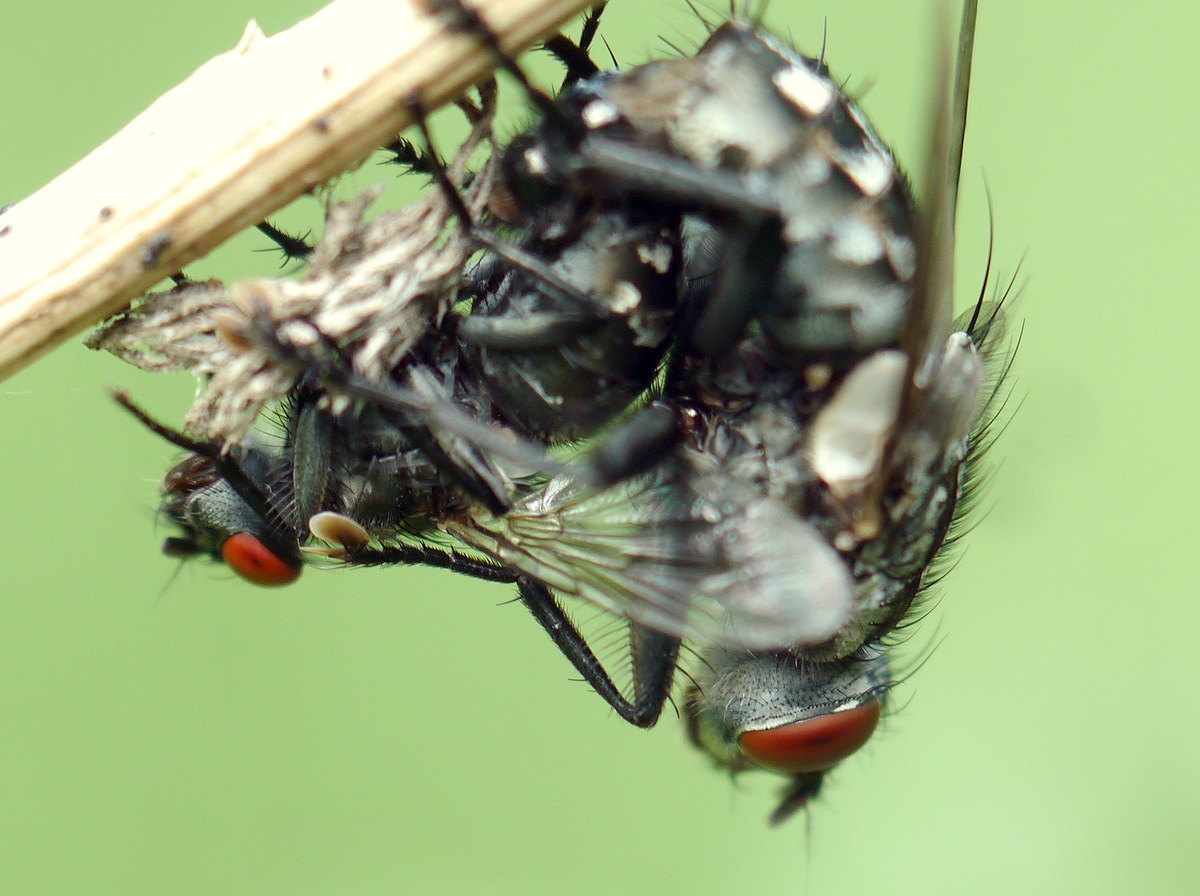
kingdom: Animalia
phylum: Arthropoda
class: Insecta
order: Diptera
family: Sarcophagidae
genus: Sarcophaga
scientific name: Sarcophaga
